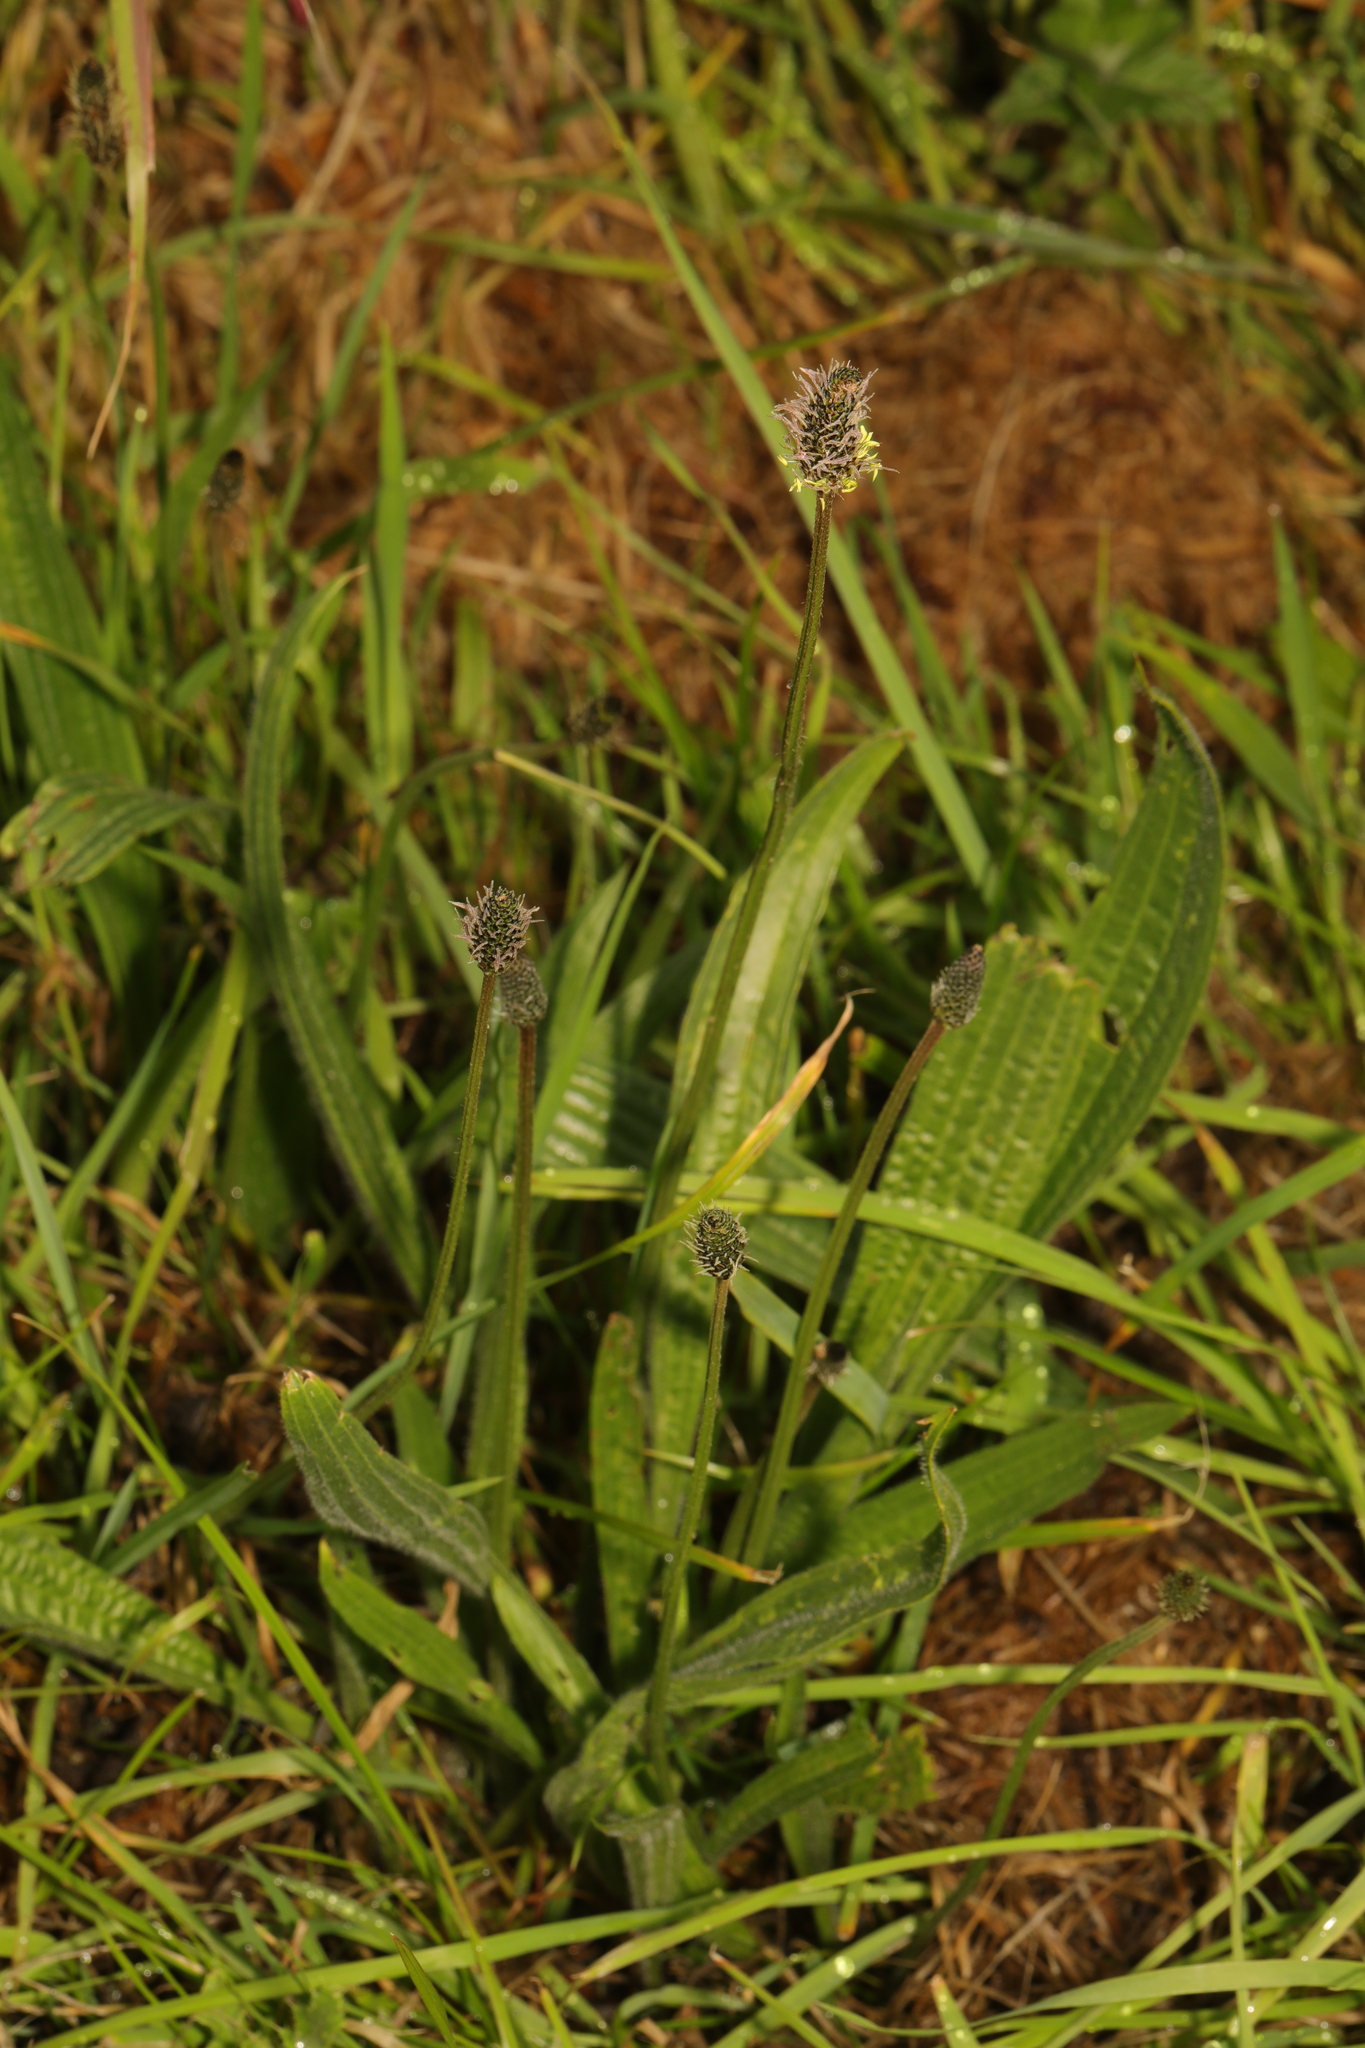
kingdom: Plantae
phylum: Tracheophyta
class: Magnoliopsida
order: Lamiales
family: Plantaginaceae
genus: Plantago
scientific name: Plantago lanceolata
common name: Ribwort plantain
